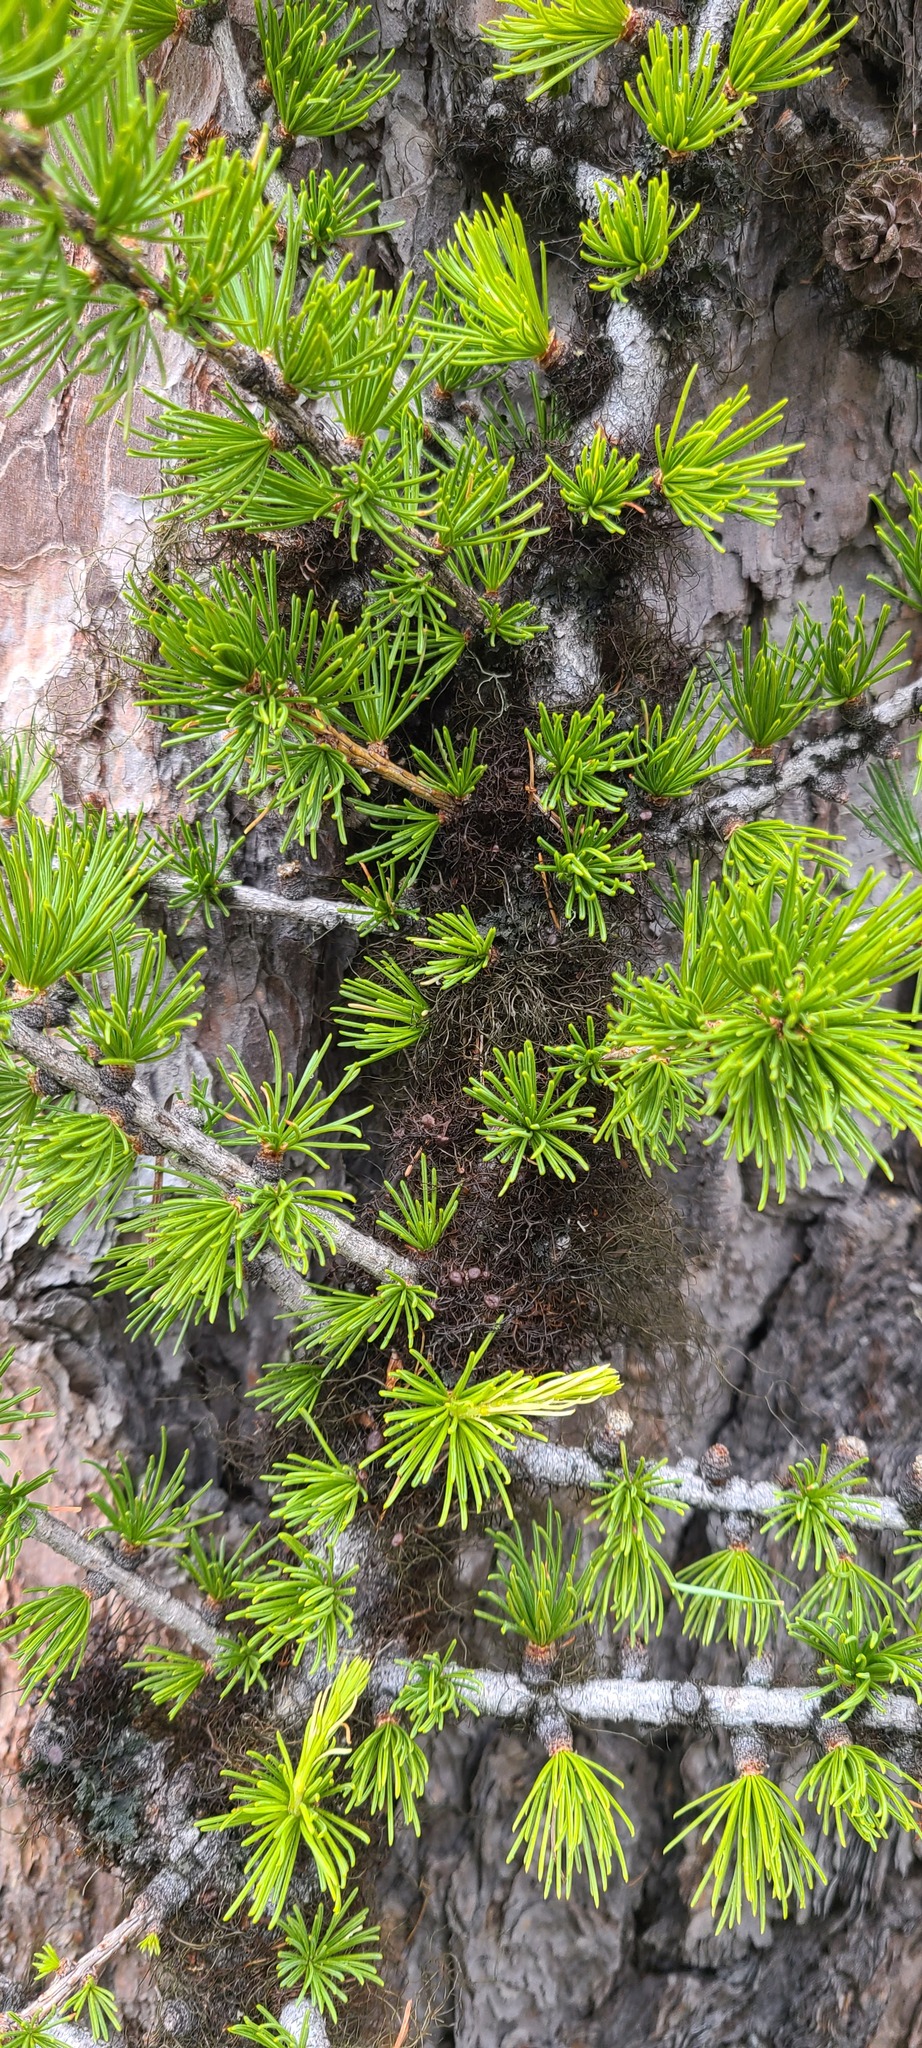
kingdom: Plantae
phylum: Tracheophyta
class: Pinopsida
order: Pinales
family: Pinaceae
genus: Larix
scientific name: Larix occidentalis
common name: Western larch
